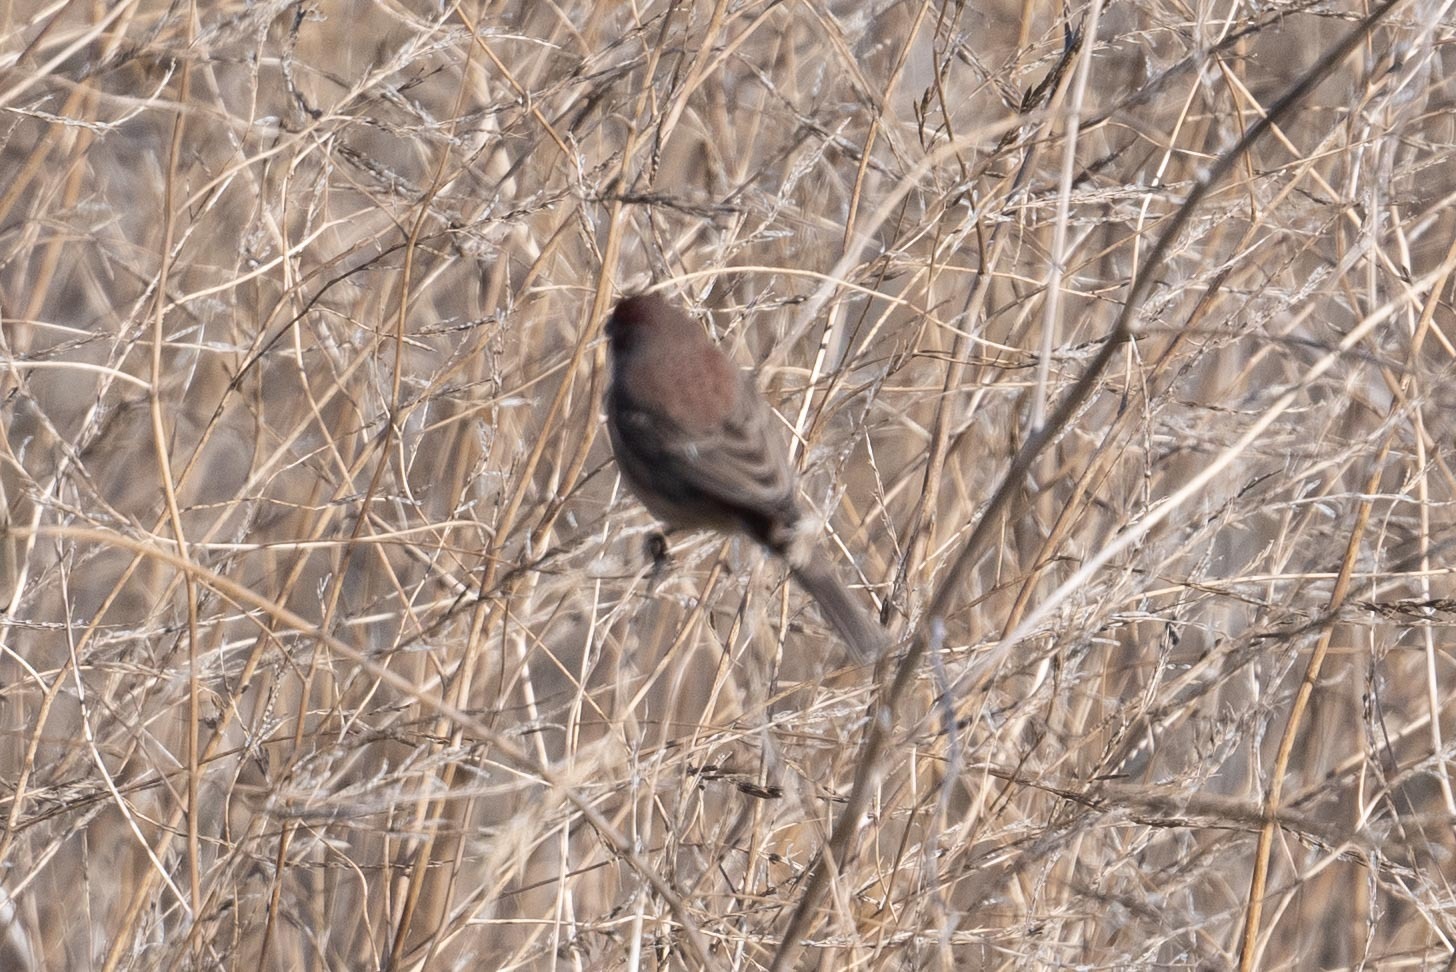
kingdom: Animalia
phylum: Chordata
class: Aves
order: Passeriformes
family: Fringillidae
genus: Haemorhous
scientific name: Haemorhous mexicanus
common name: House finch
